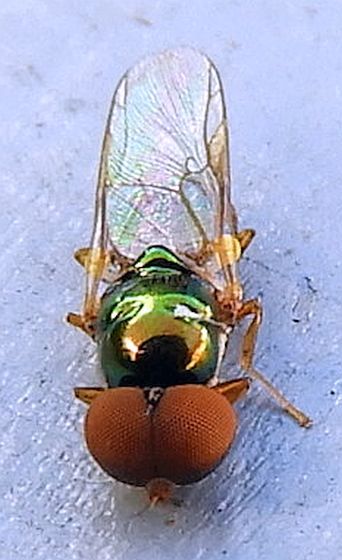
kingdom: Animalia
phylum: Arthropoda
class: Insecta
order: Diptera
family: Stratiomyidae
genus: Microchrysa
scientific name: Microchrysa flaviventris
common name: Soldier fly
